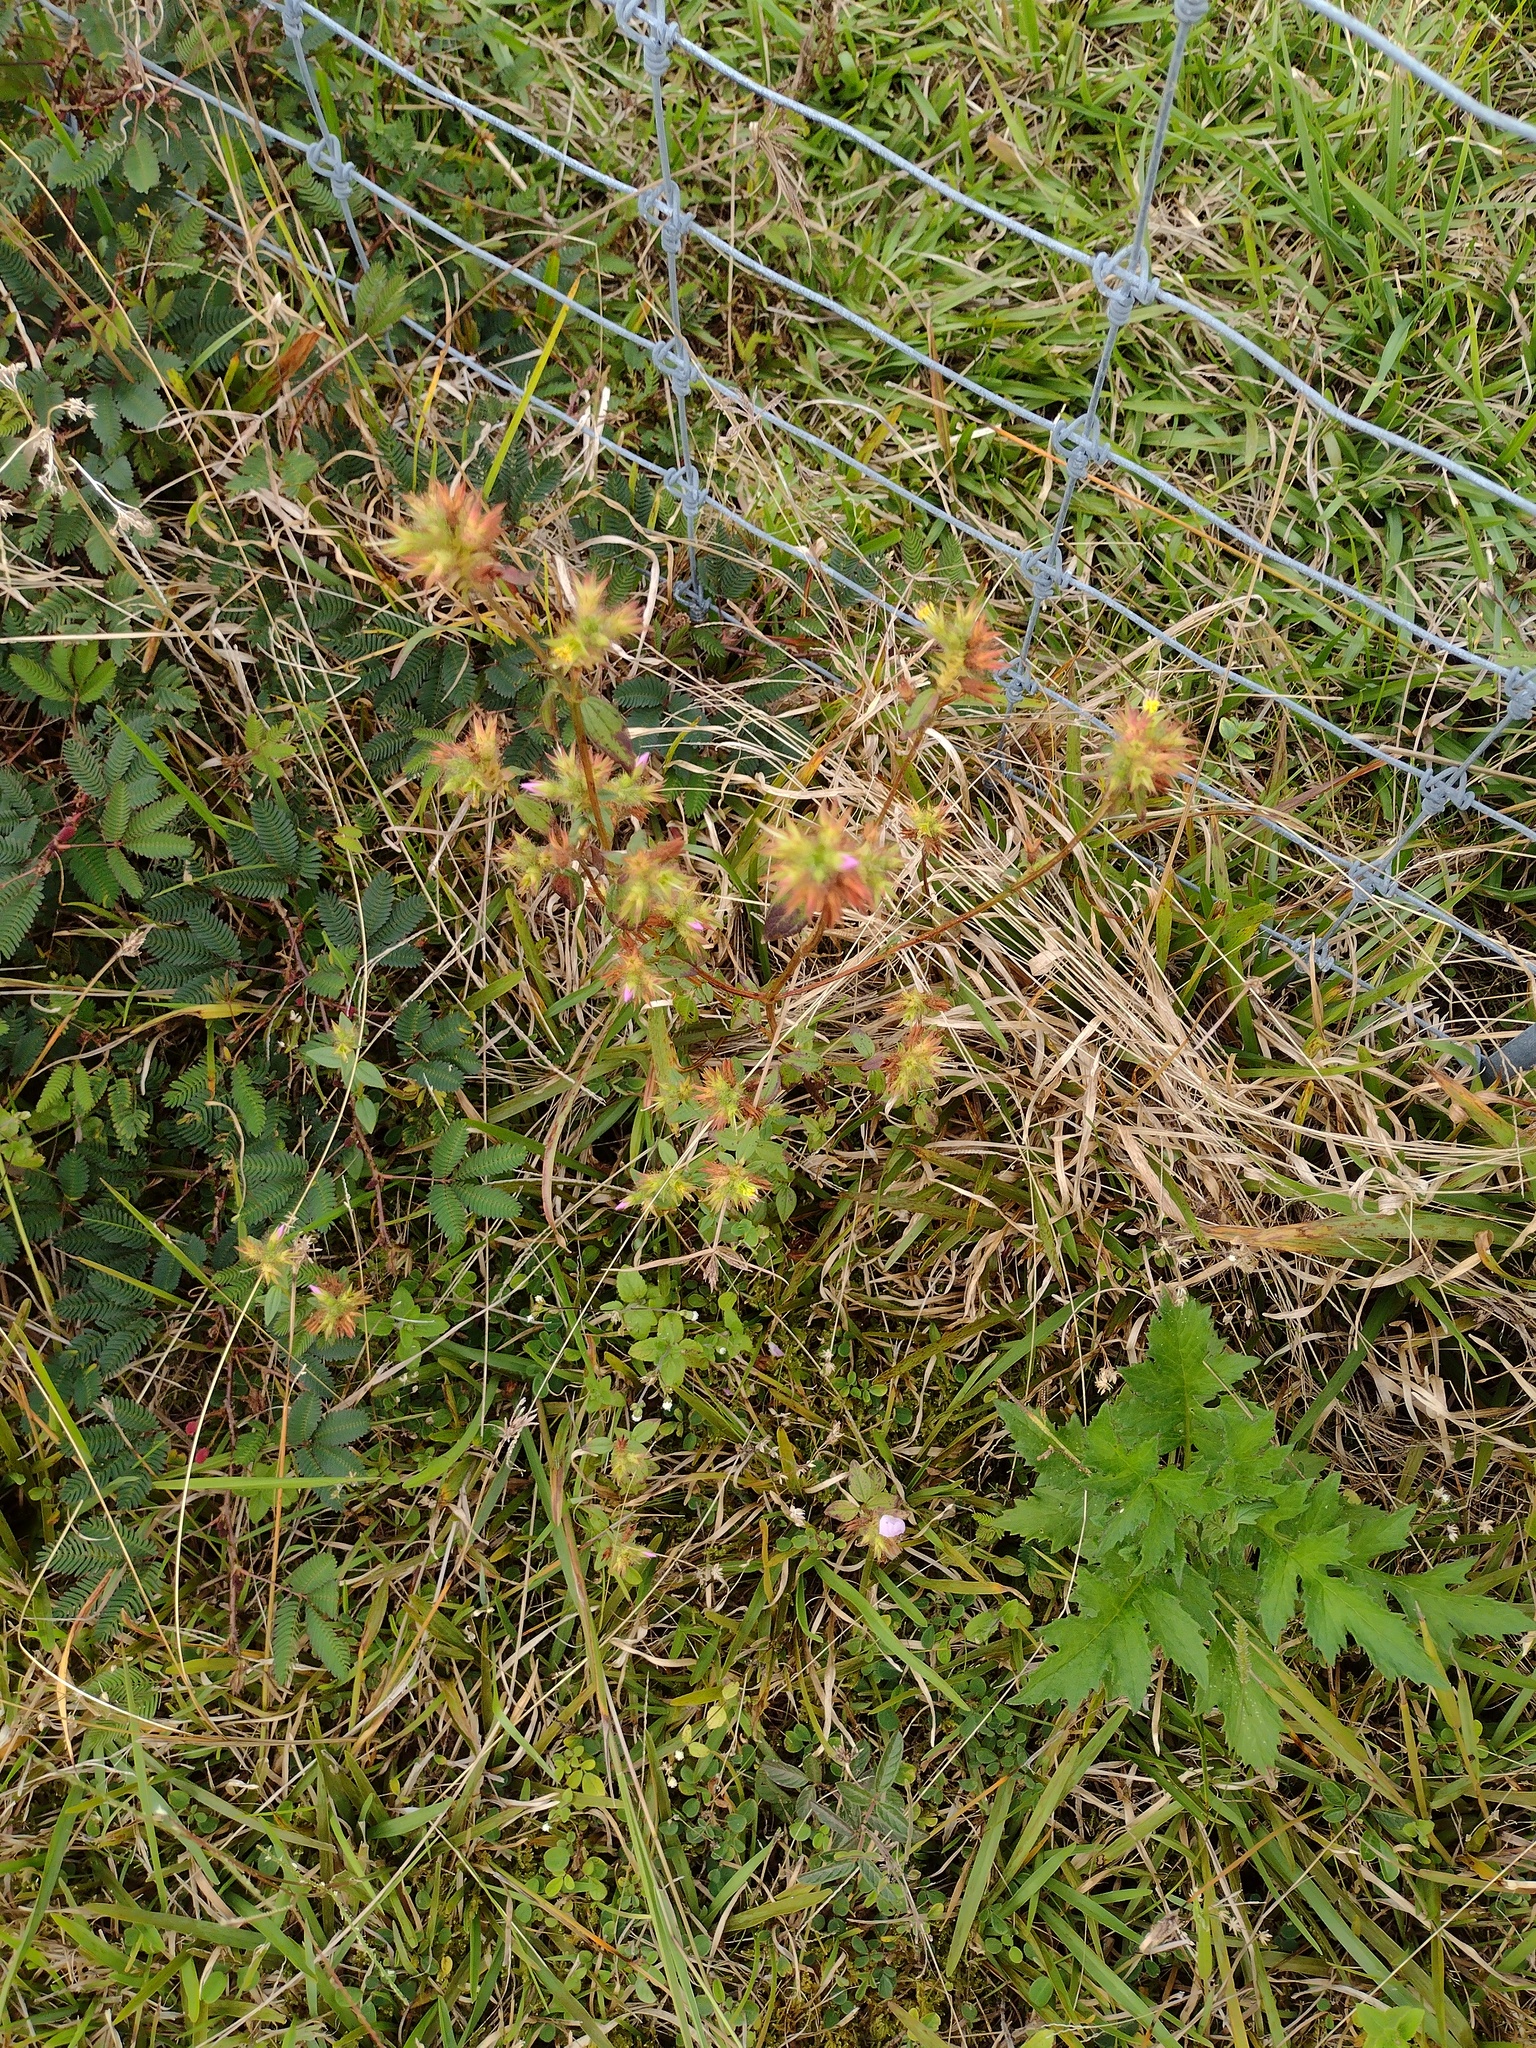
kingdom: Plantae
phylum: Tracheophyta
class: Magnoliopsida
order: Myrtales
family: Melastomataceae
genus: Pterolepis
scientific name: Pterolepis glomerata
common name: False meadowbeauty
